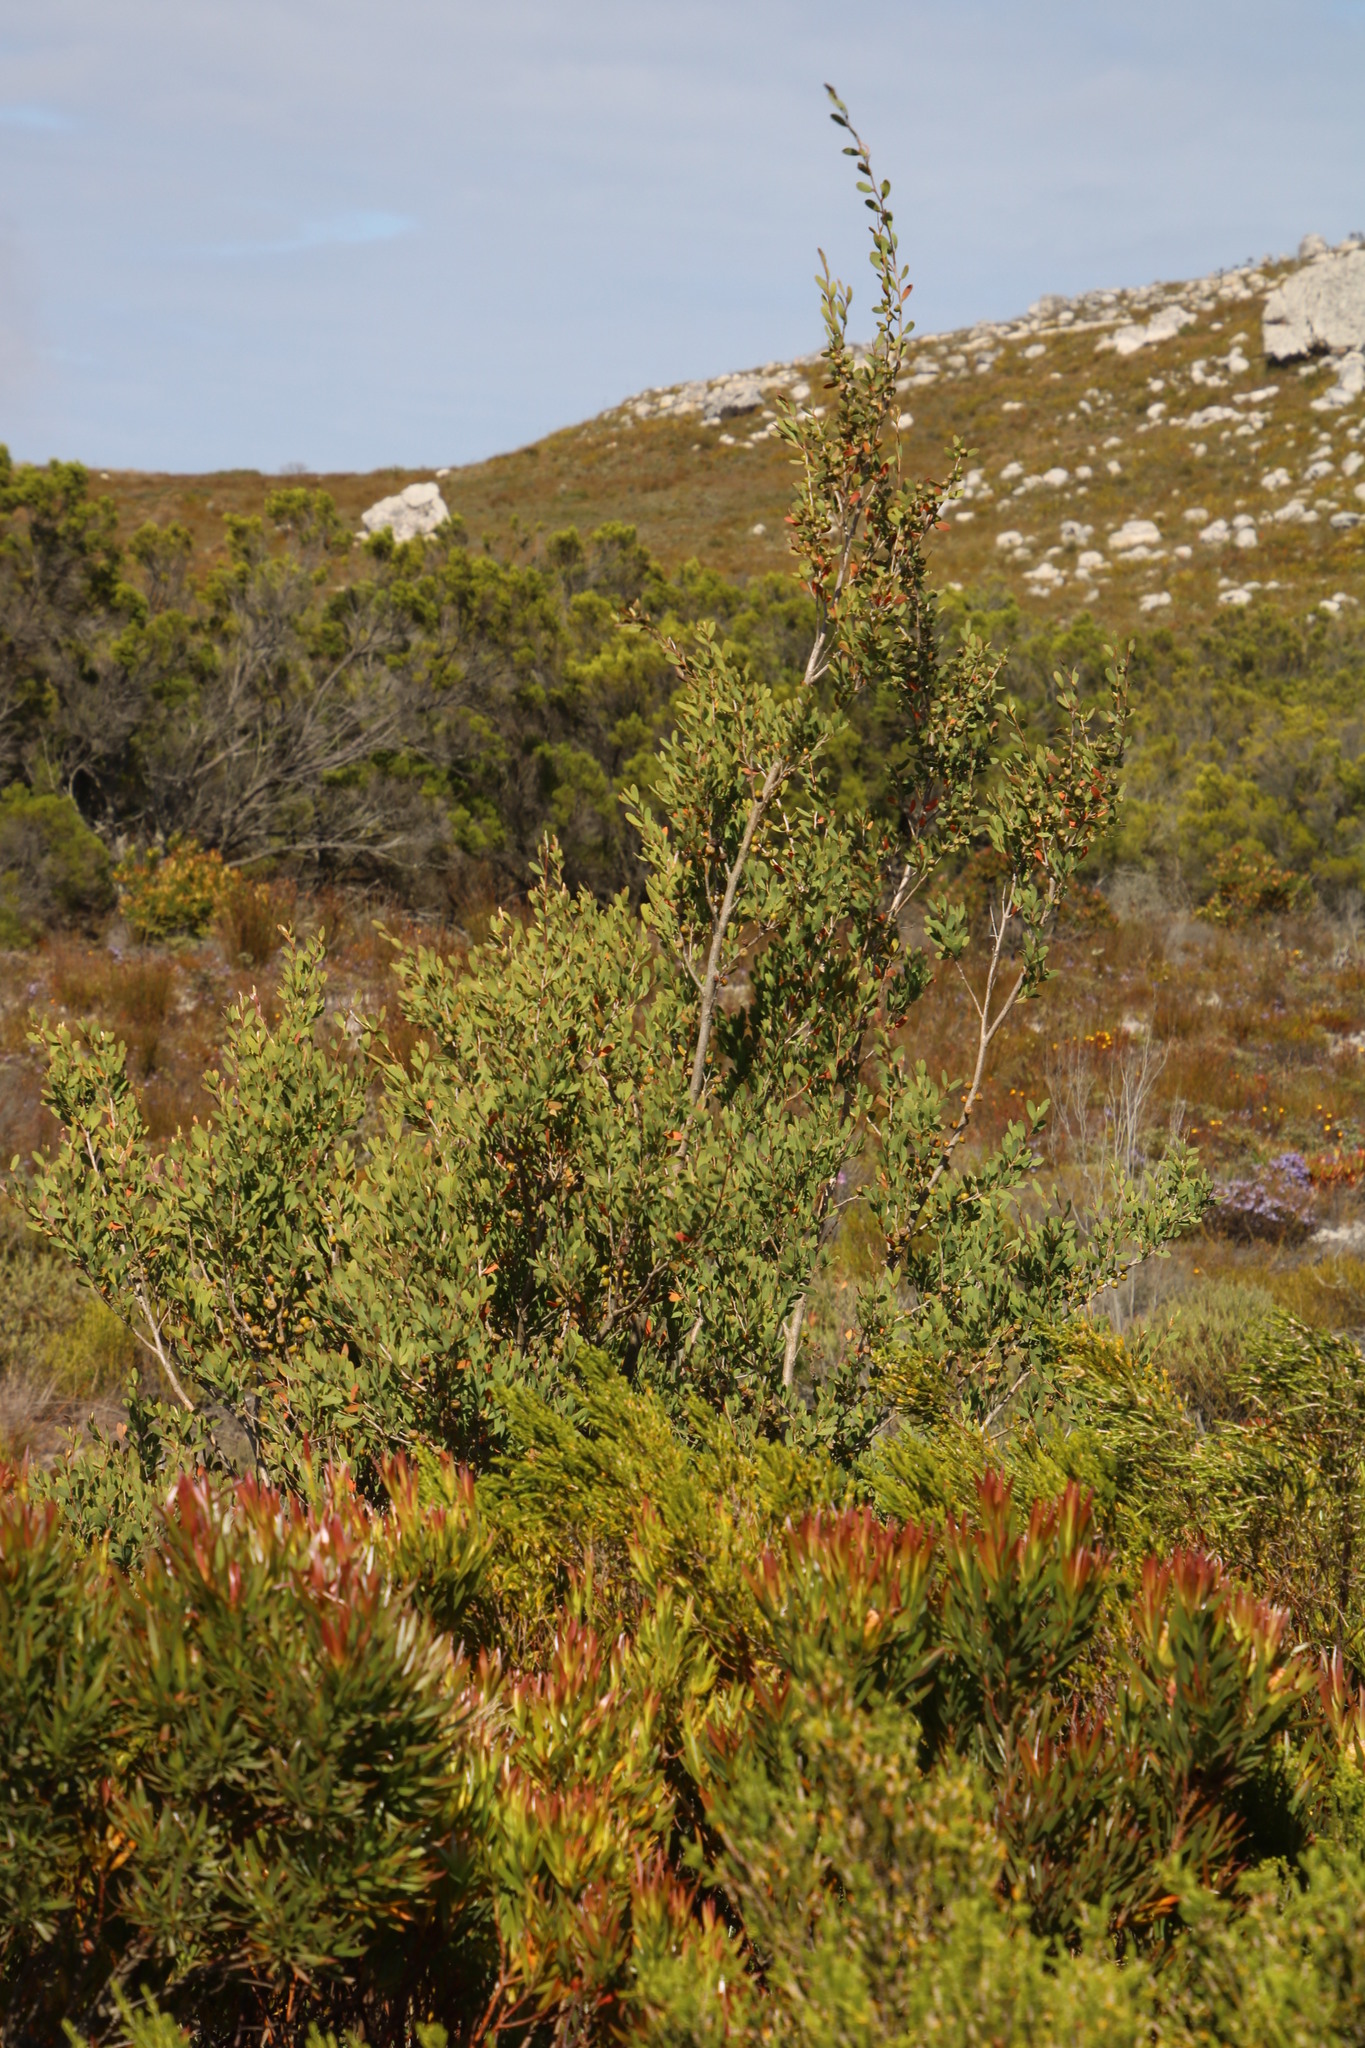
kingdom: Plantae
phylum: Tracheophyta
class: Magnoliopsida
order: Myrtales
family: Myrtaceae
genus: Leptospermum
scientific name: Leptospermum laevigatum
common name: Australian teatree
